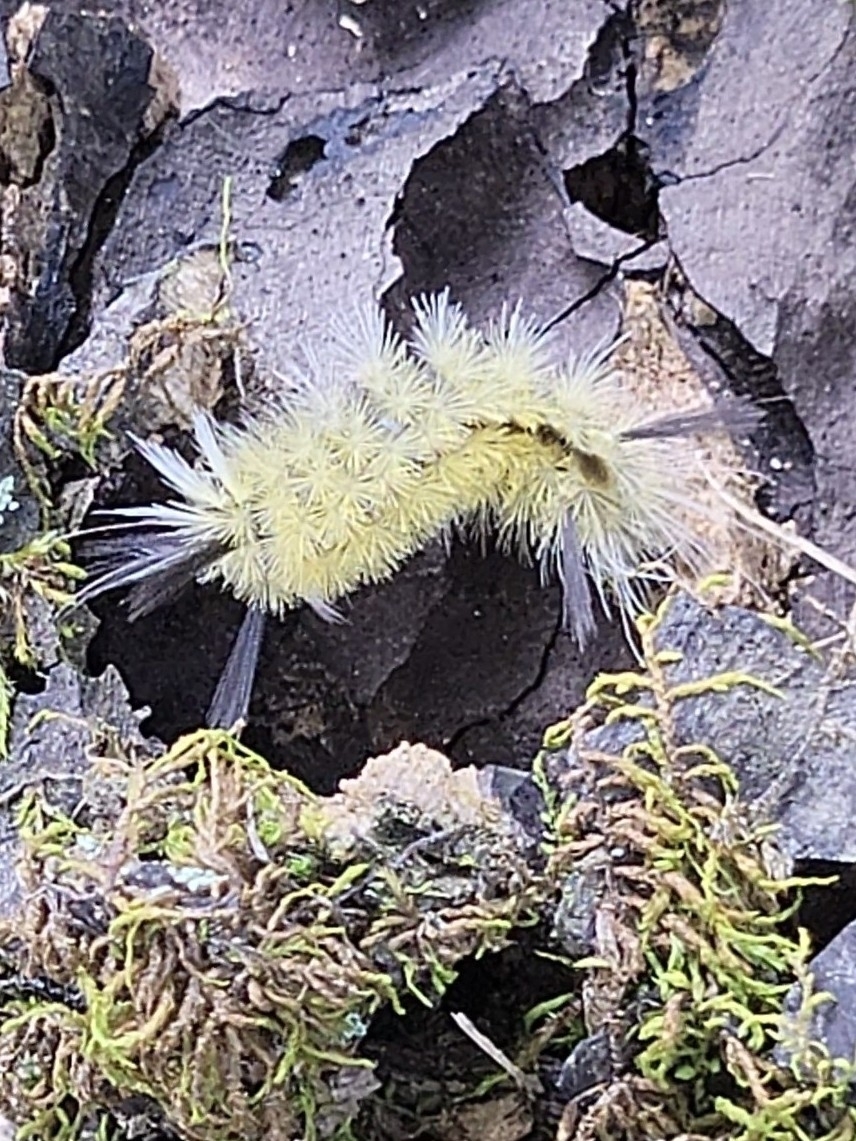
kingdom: Animalia
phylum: Arthropoda
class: Insecta
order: Lepidoptera
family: Erebidae
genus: Halysidota
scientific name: Halysidota tessellaris
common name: Banded tussock moth
